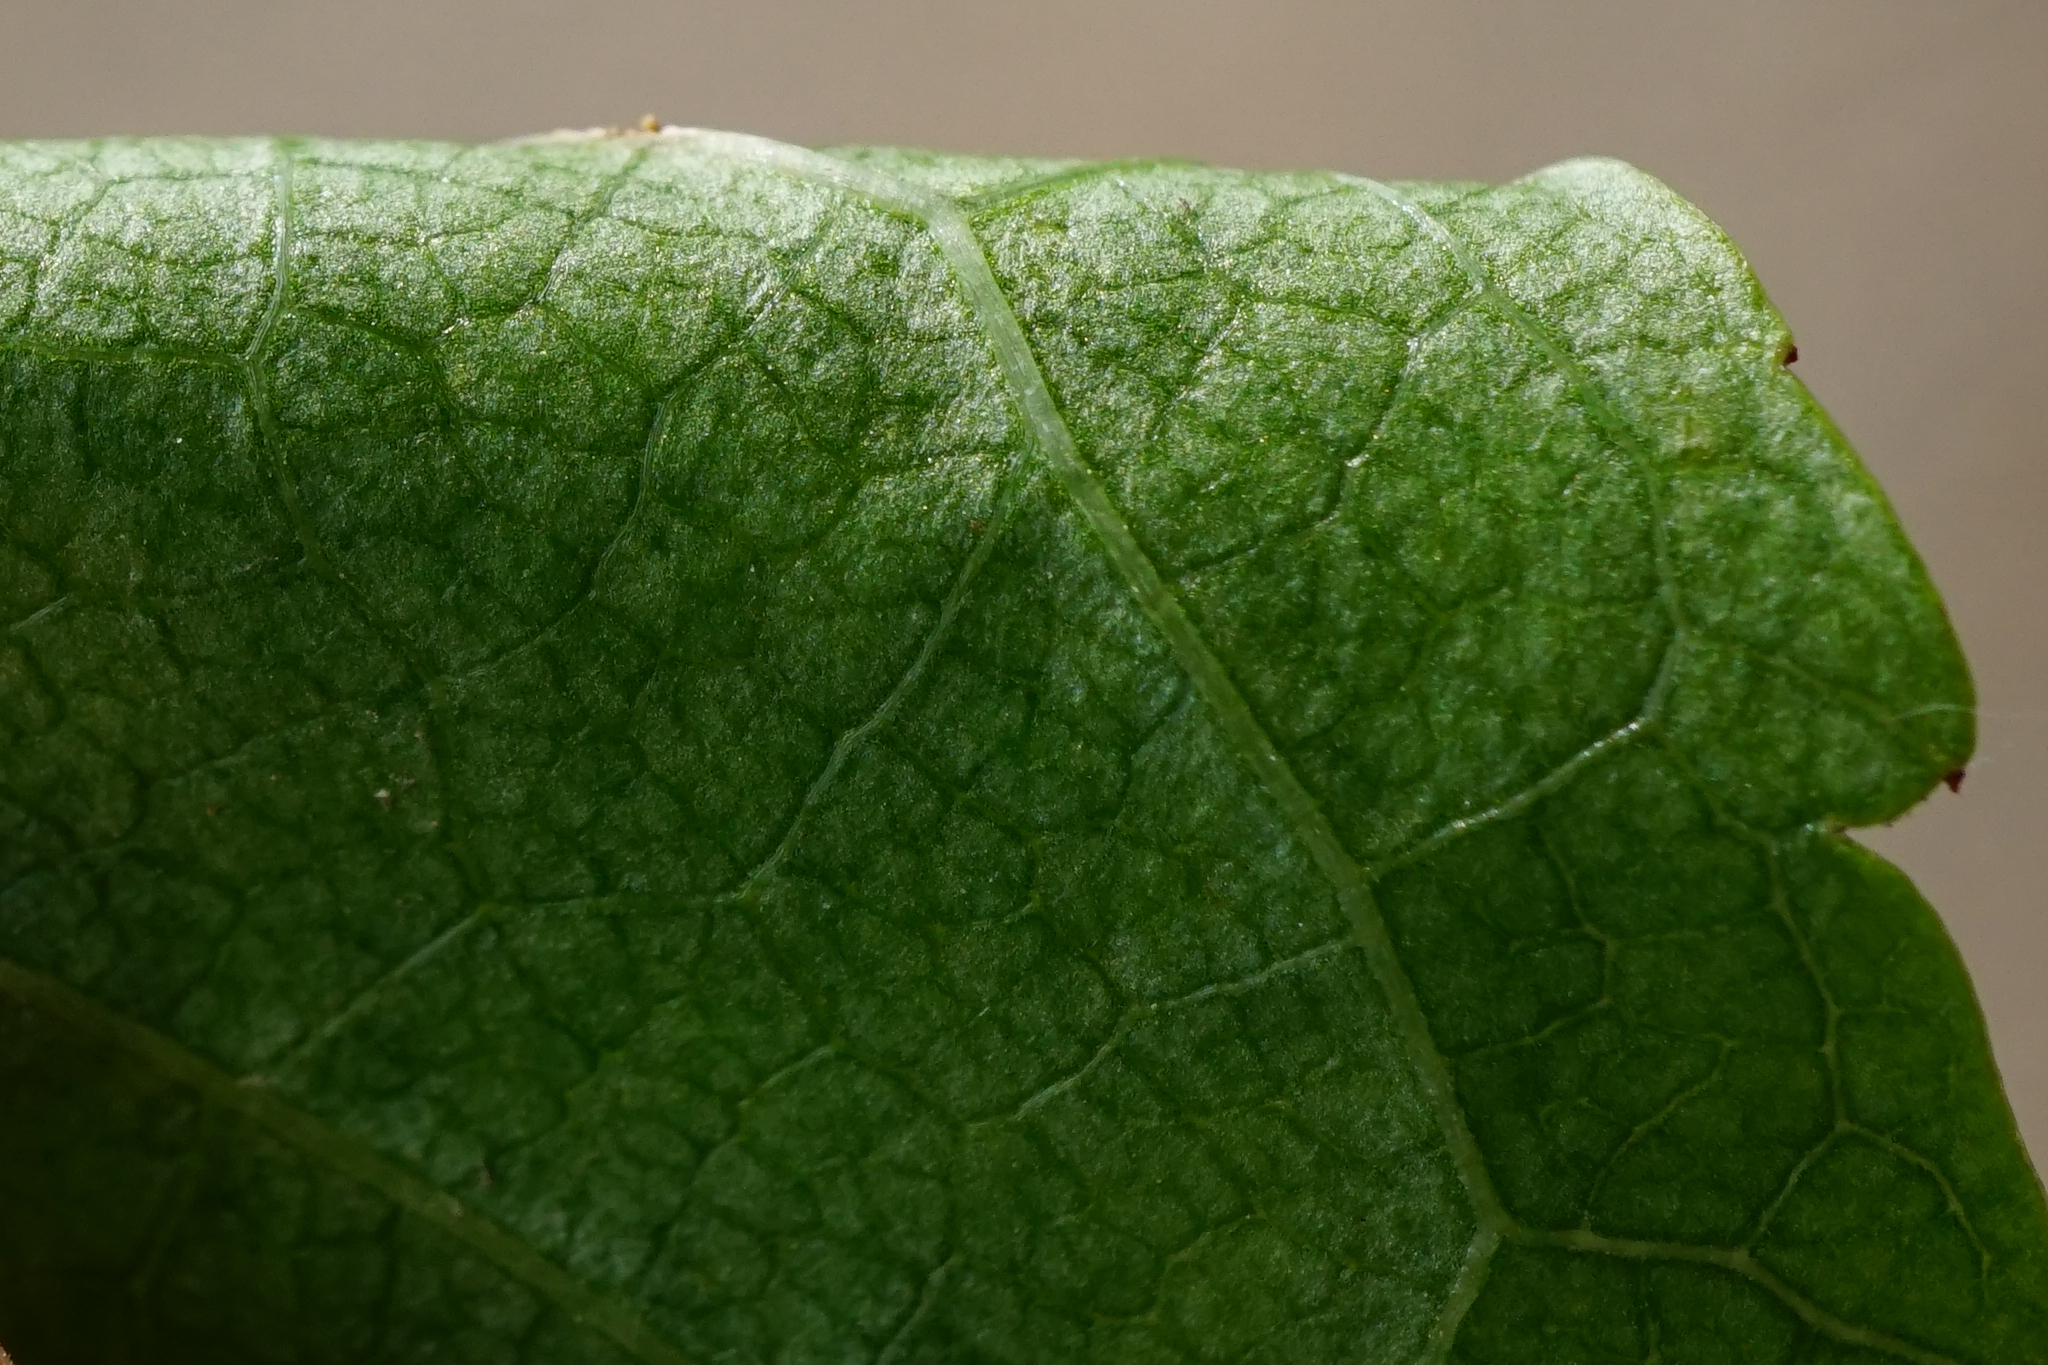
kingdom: Plantae
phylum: Tracheophyta
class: Magnoliopsida
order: Rosales
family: Rosaceae
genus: Prunus
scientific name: Prunus avium
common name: Sweet cherry
